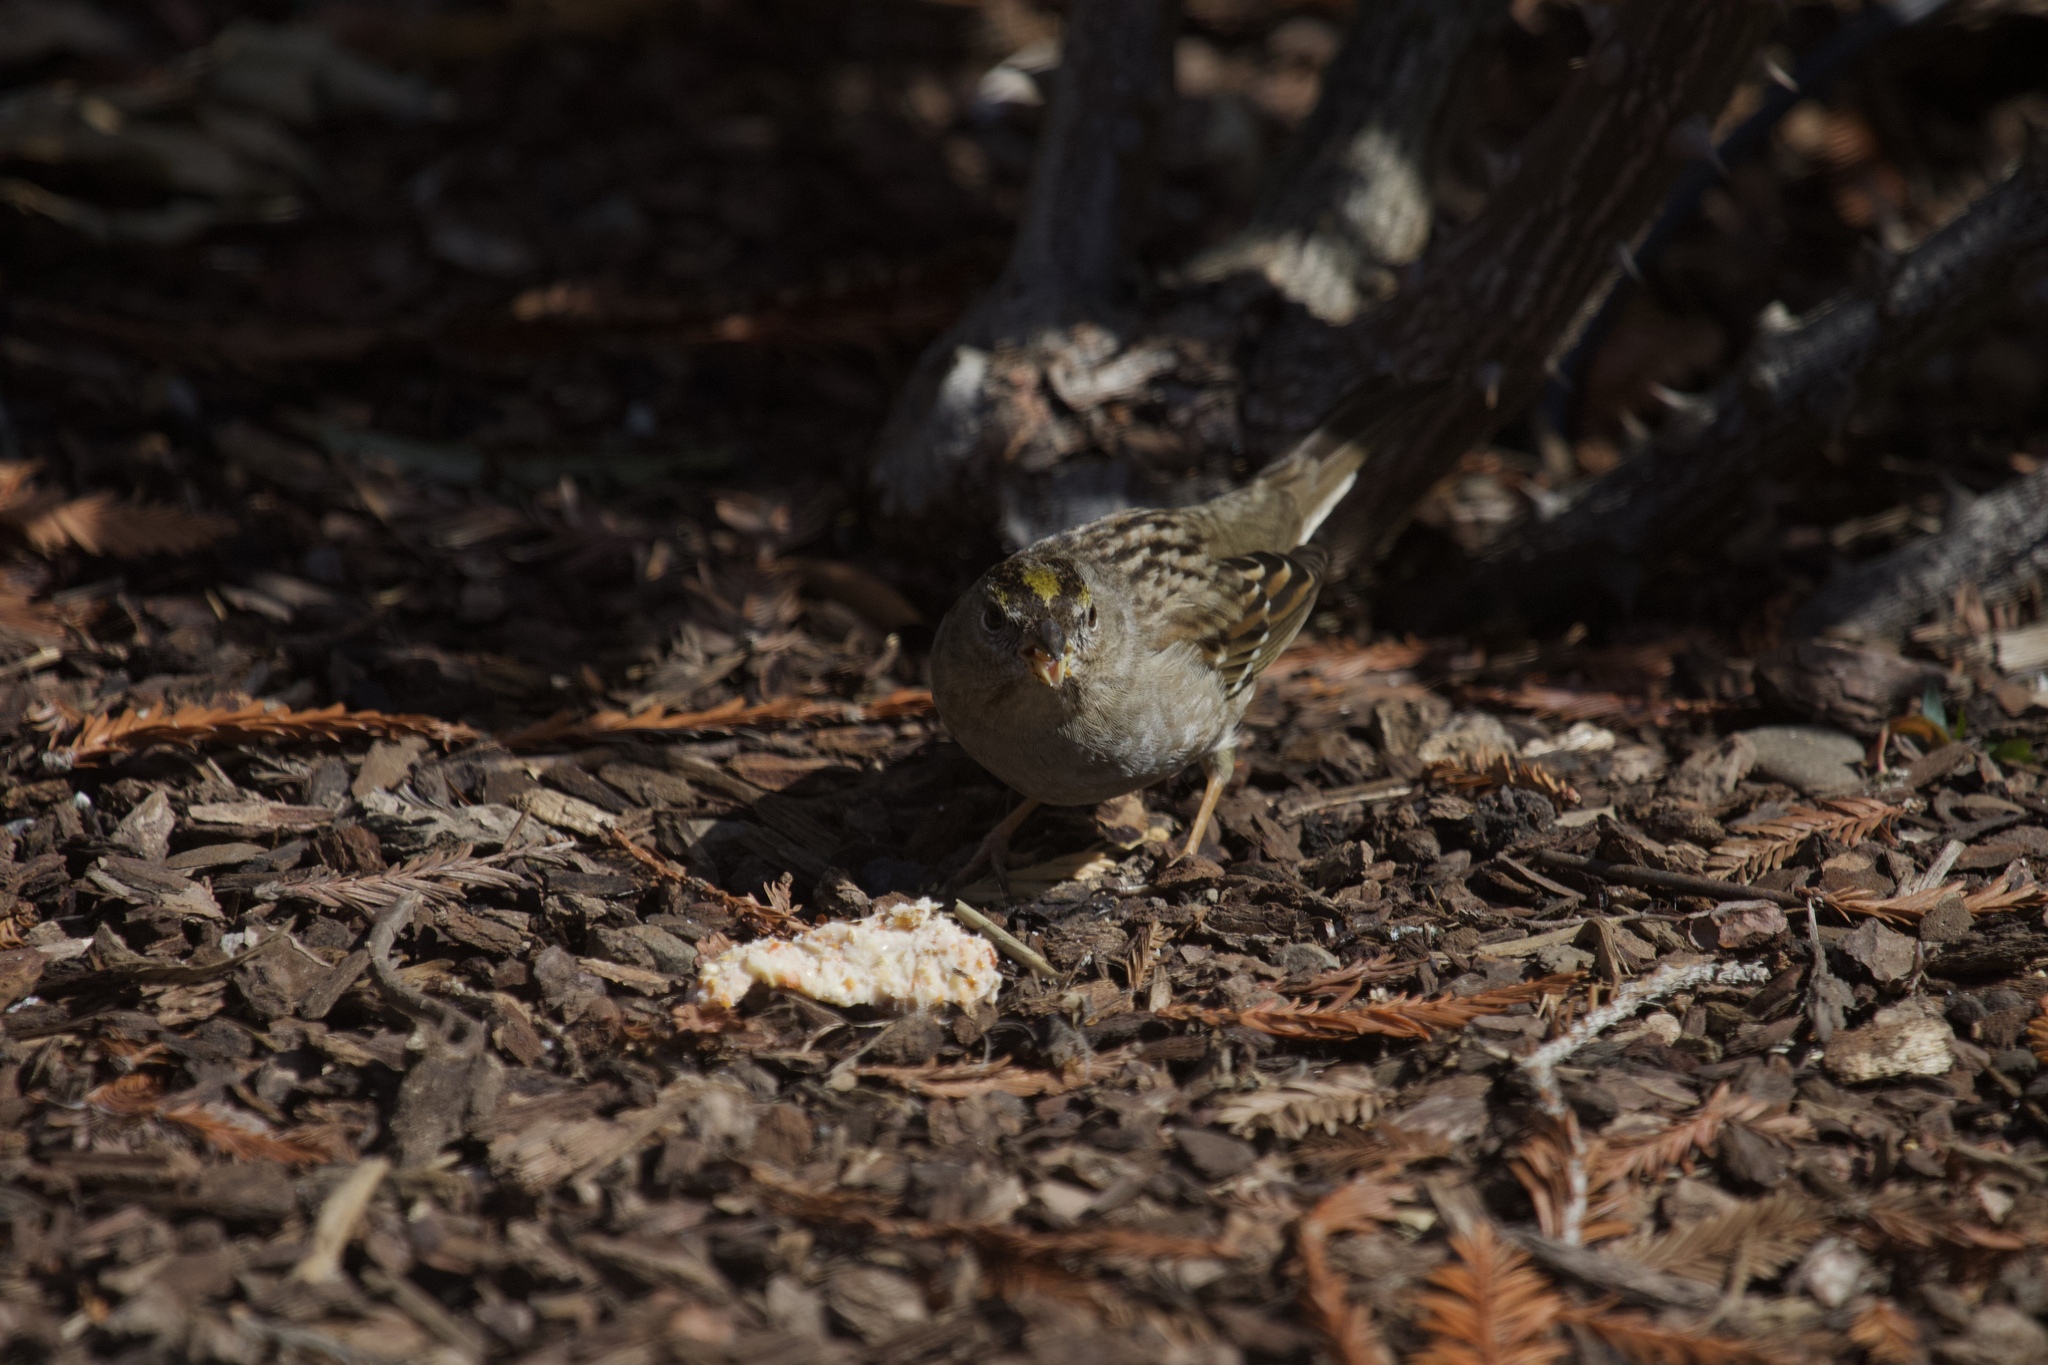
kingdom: Animalia
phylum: Chordata
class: Aves
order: Passeriformes
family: Passerellidae
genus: Zonotrichia
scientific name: Zonotrichia atricapilla
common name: Golden-crowned sparrow
